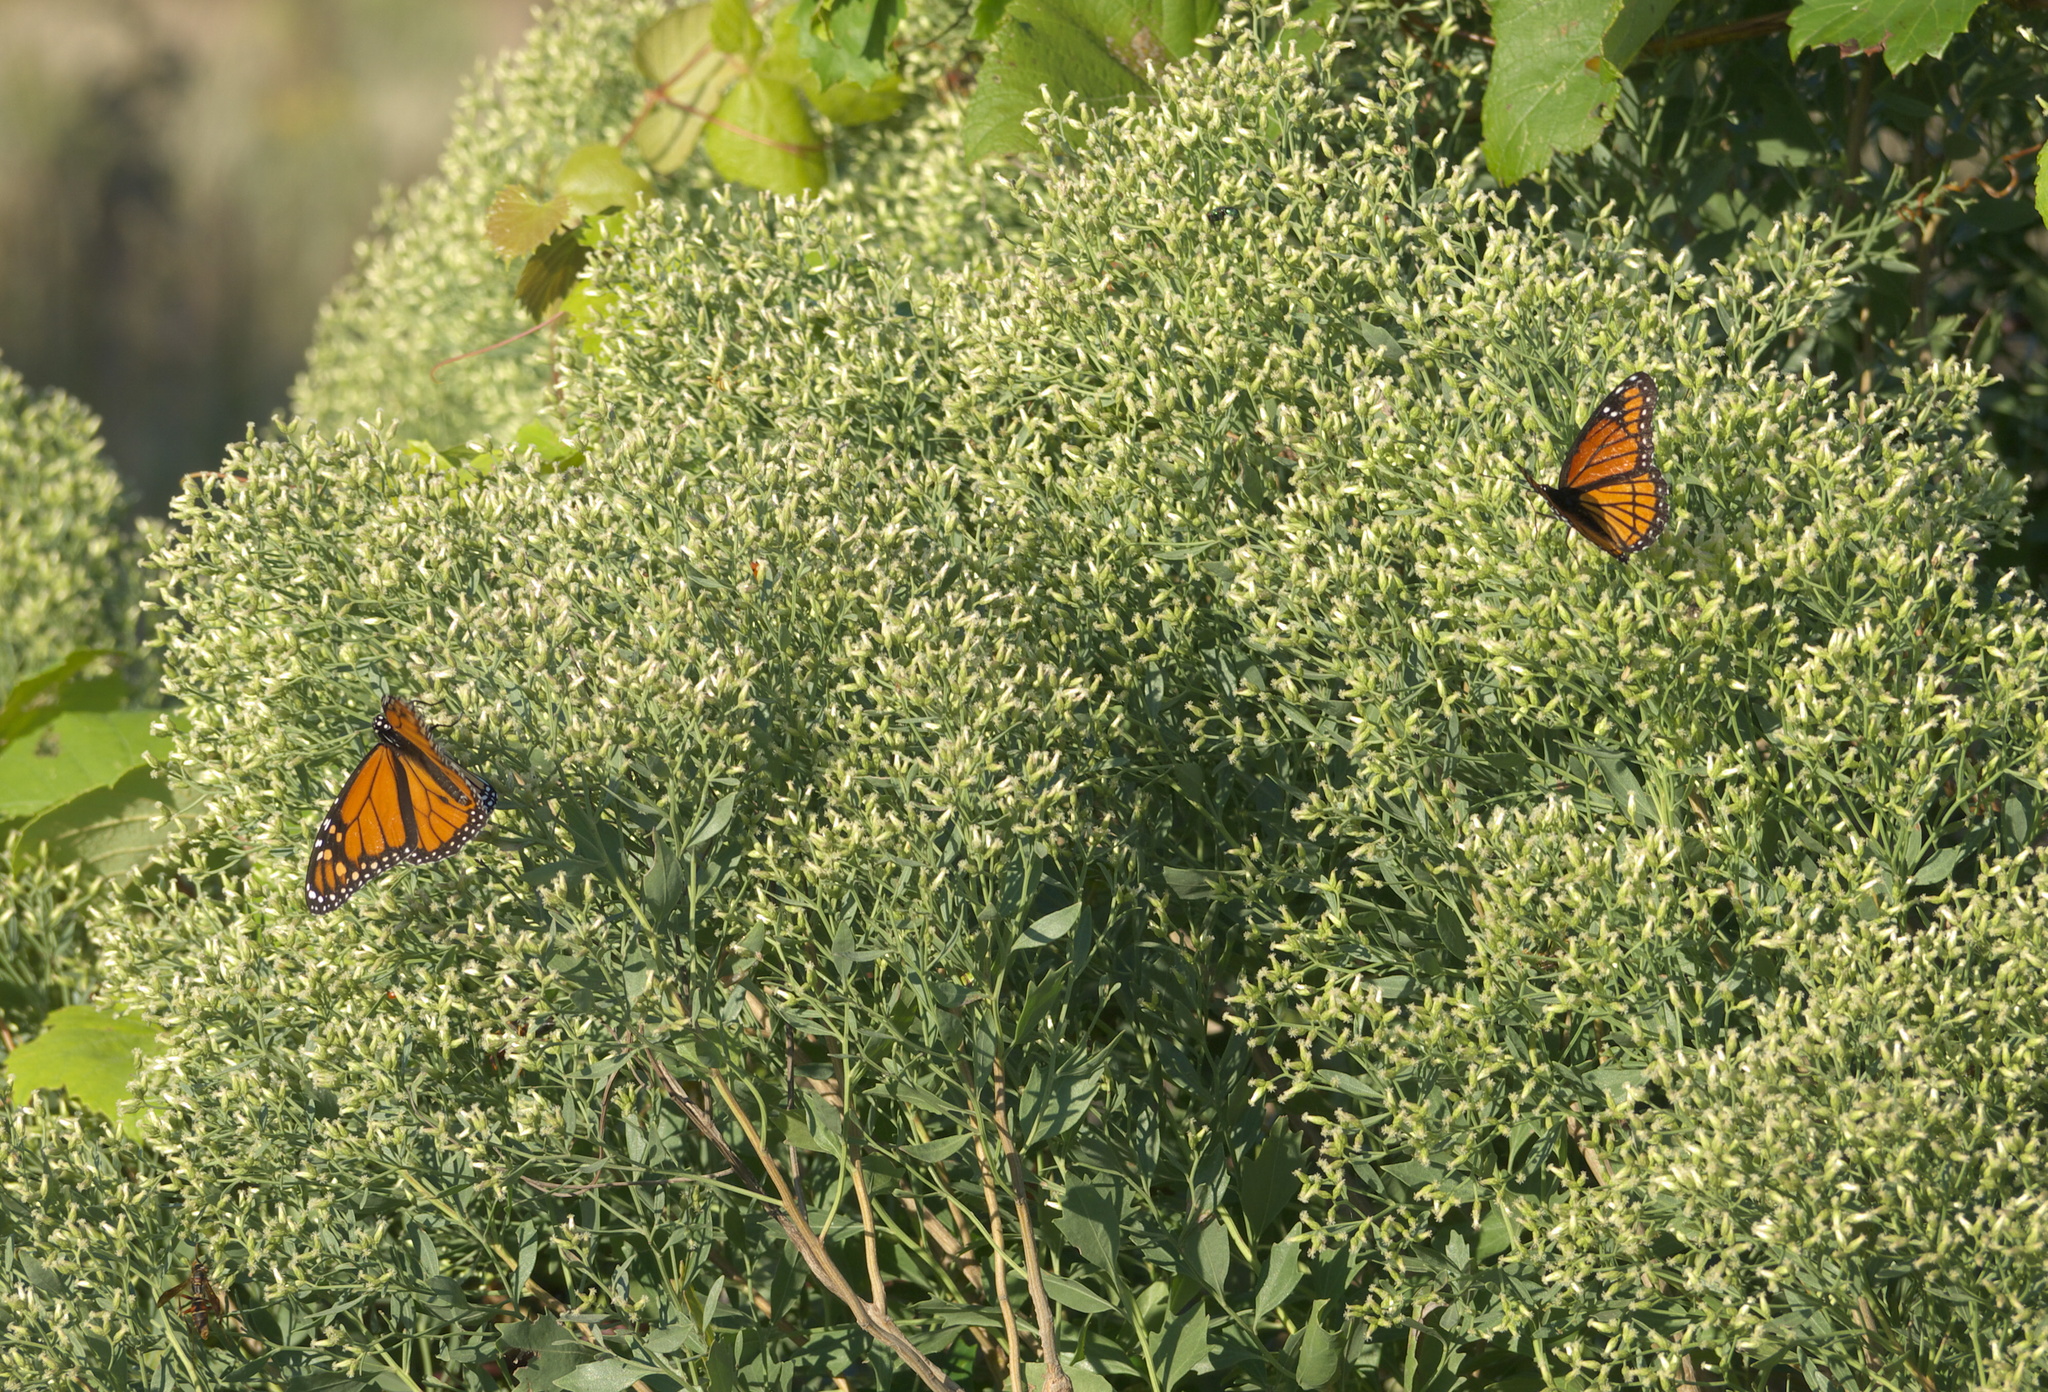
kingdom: Plantae
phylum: Tracheophyta
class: Magnoliopsida
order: Asterales
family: Asteraceae
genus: Baccharis
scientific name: Baccharis halimifolia
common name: Eastern baccharis
